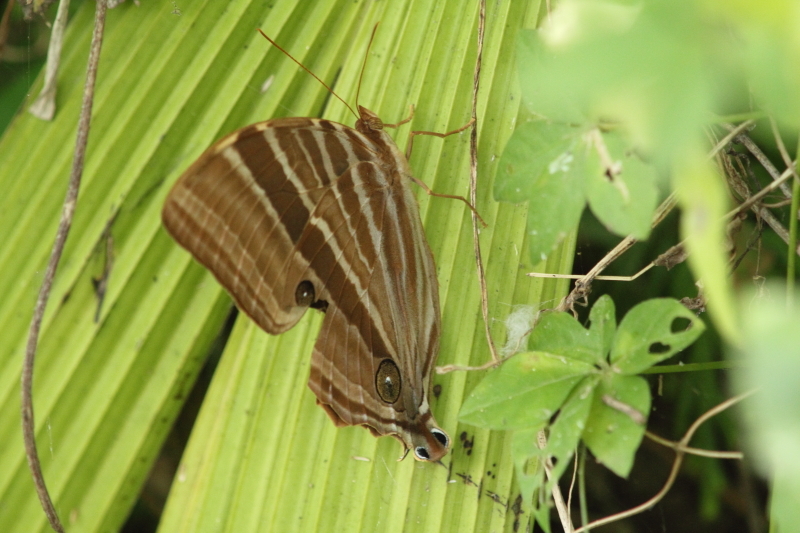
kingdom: Animalia
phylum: Arthropoda
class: Insecta
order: Lepidoptera
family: Nymphalidae
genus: Amathusia
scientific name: Amathusia phidippus
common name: Palm king
